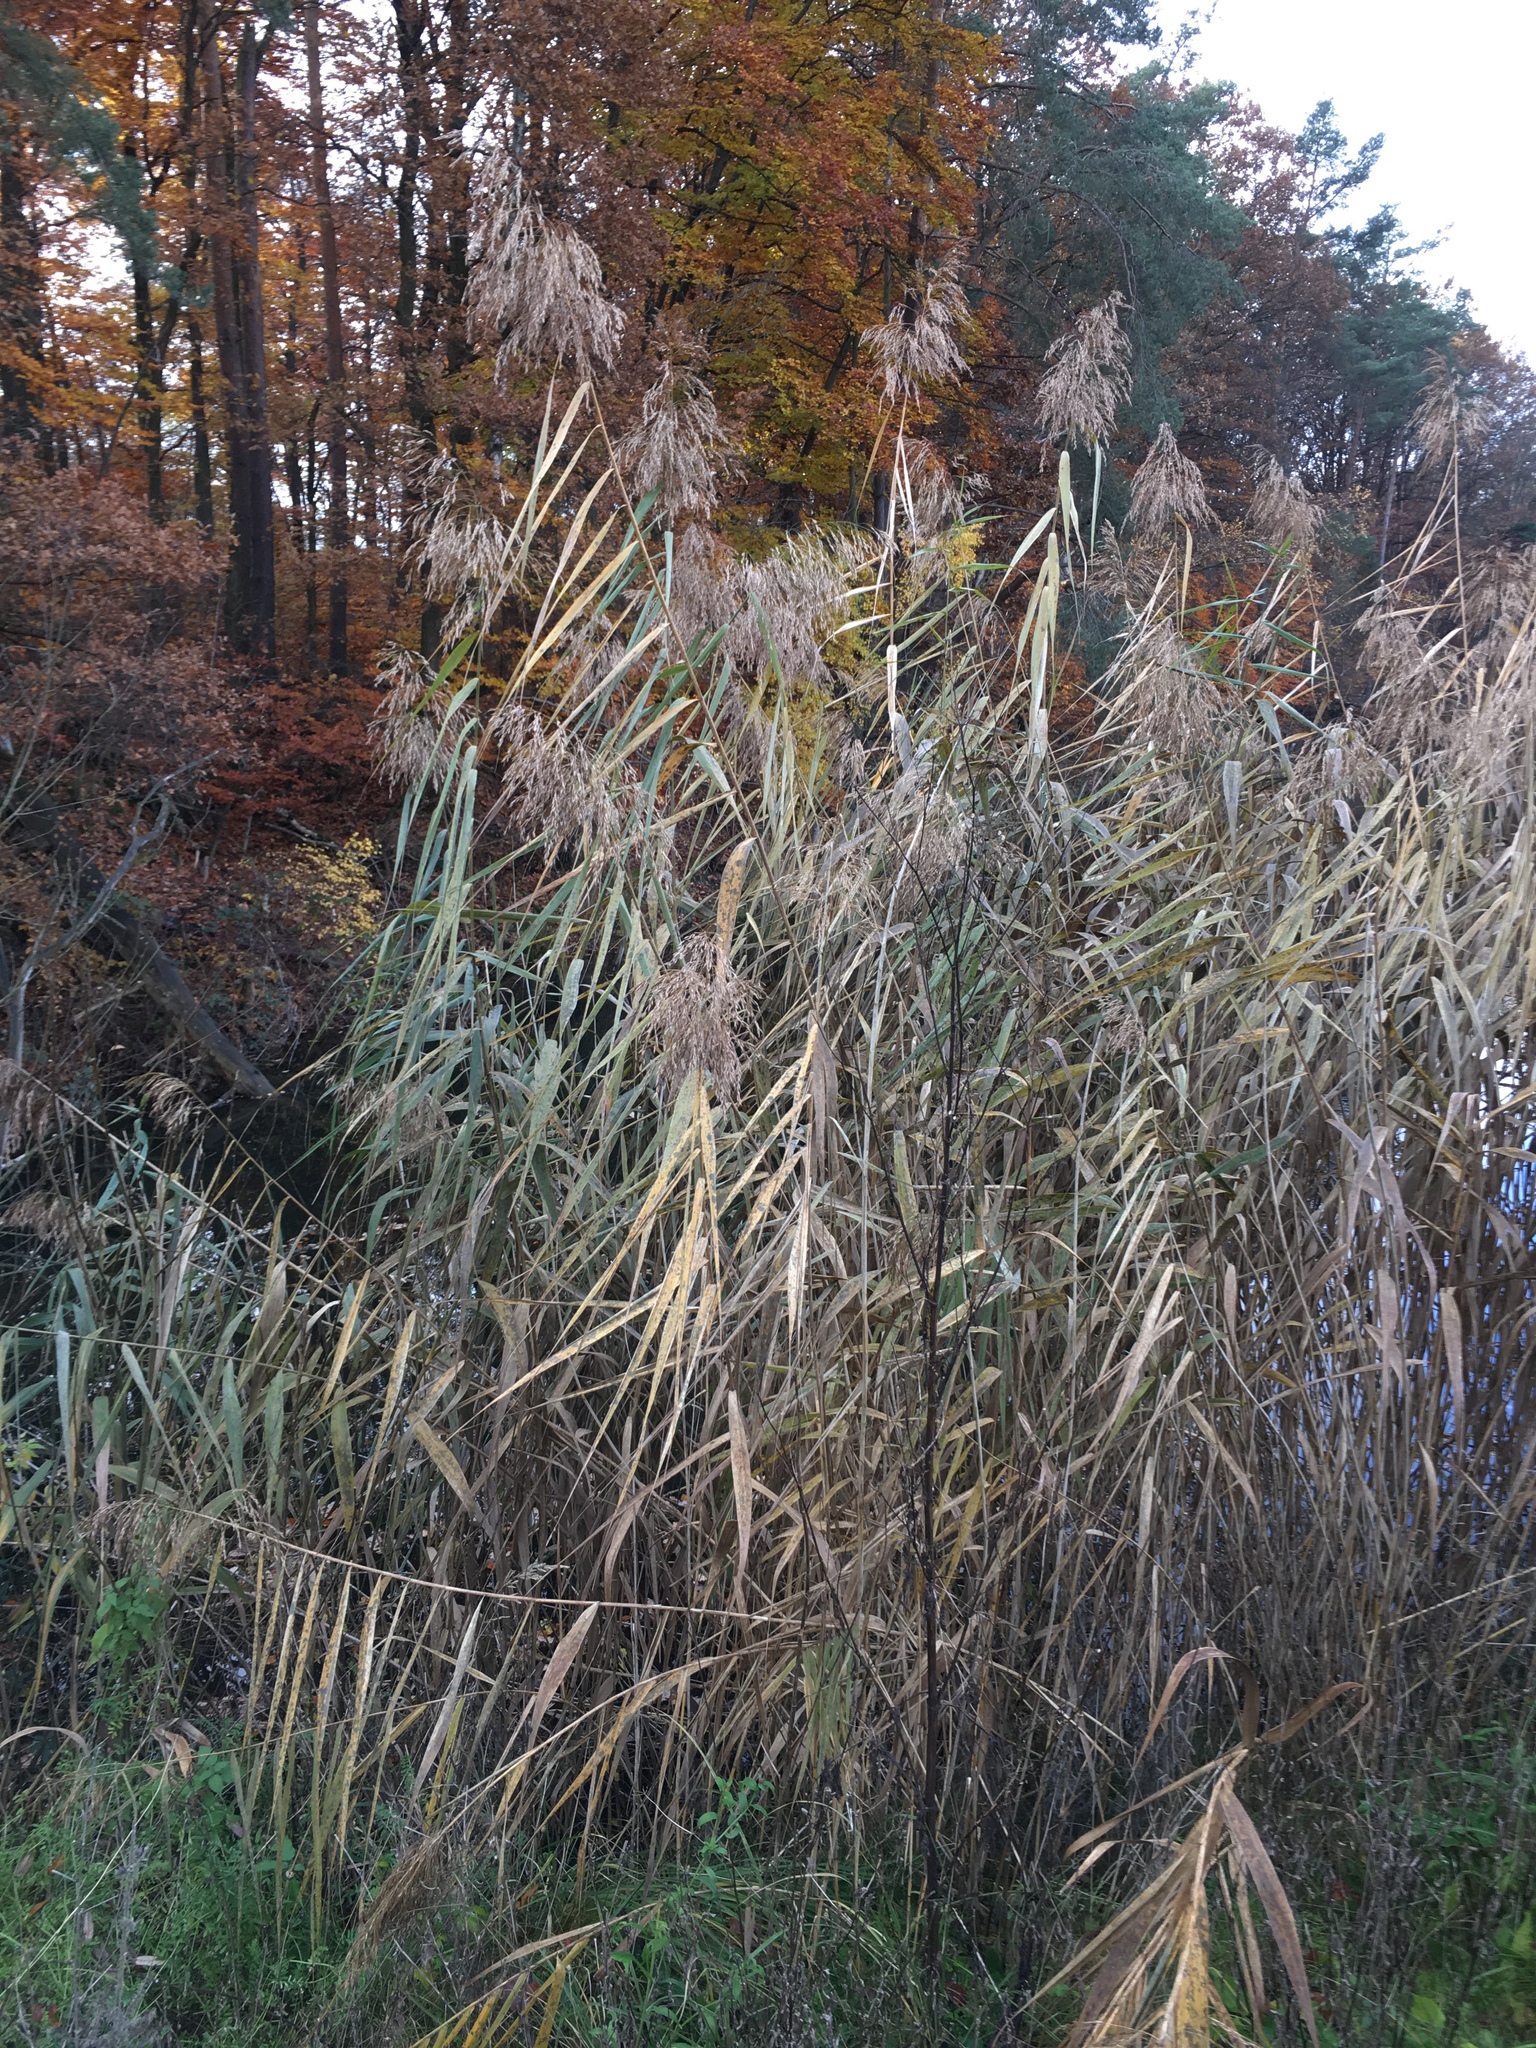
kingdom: Plantae
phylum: Tracheophyta
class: Liliopsida
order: Poales
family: Poaceae
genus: Phragmites
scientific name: Phragmites australis
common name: Common reed
